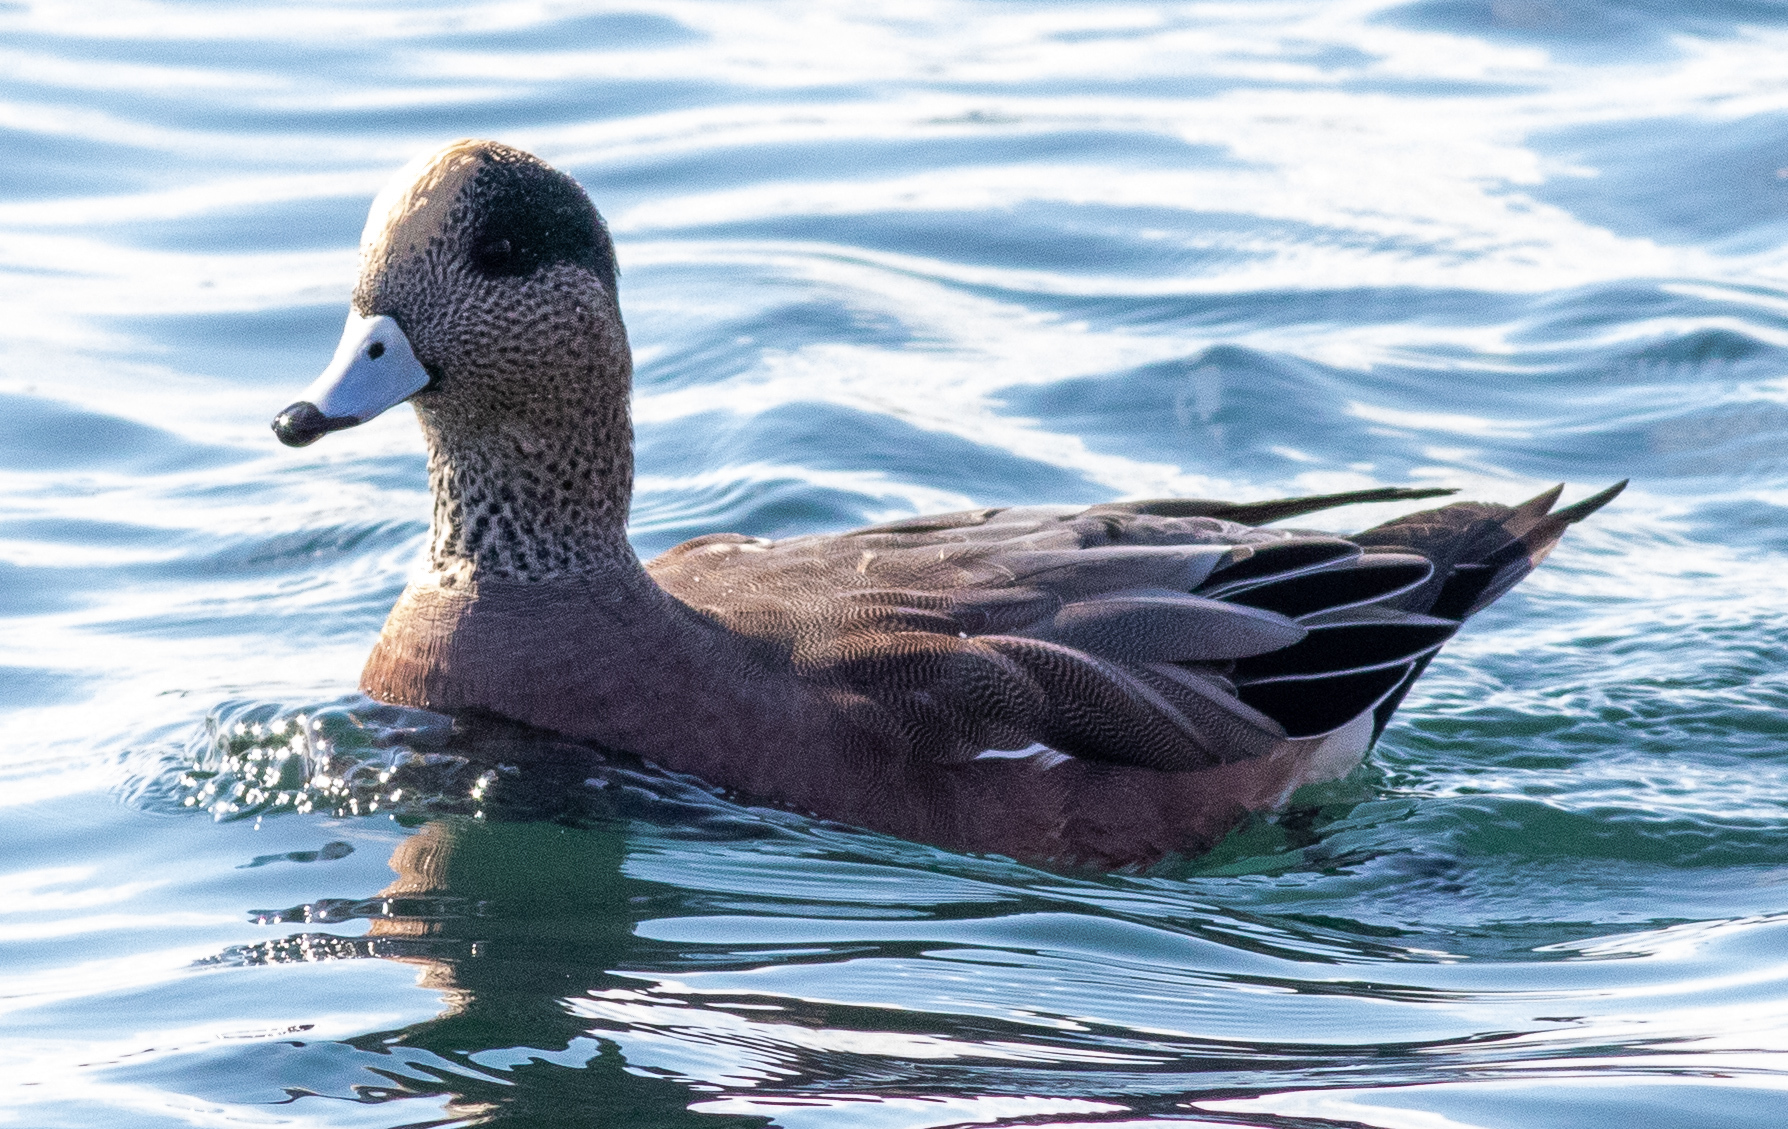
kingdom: Animalia
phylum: Chordata
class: Aves
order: Anseriformes
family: Anatidae
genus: Mareca
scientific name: Mareca americana
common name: American wigeon
